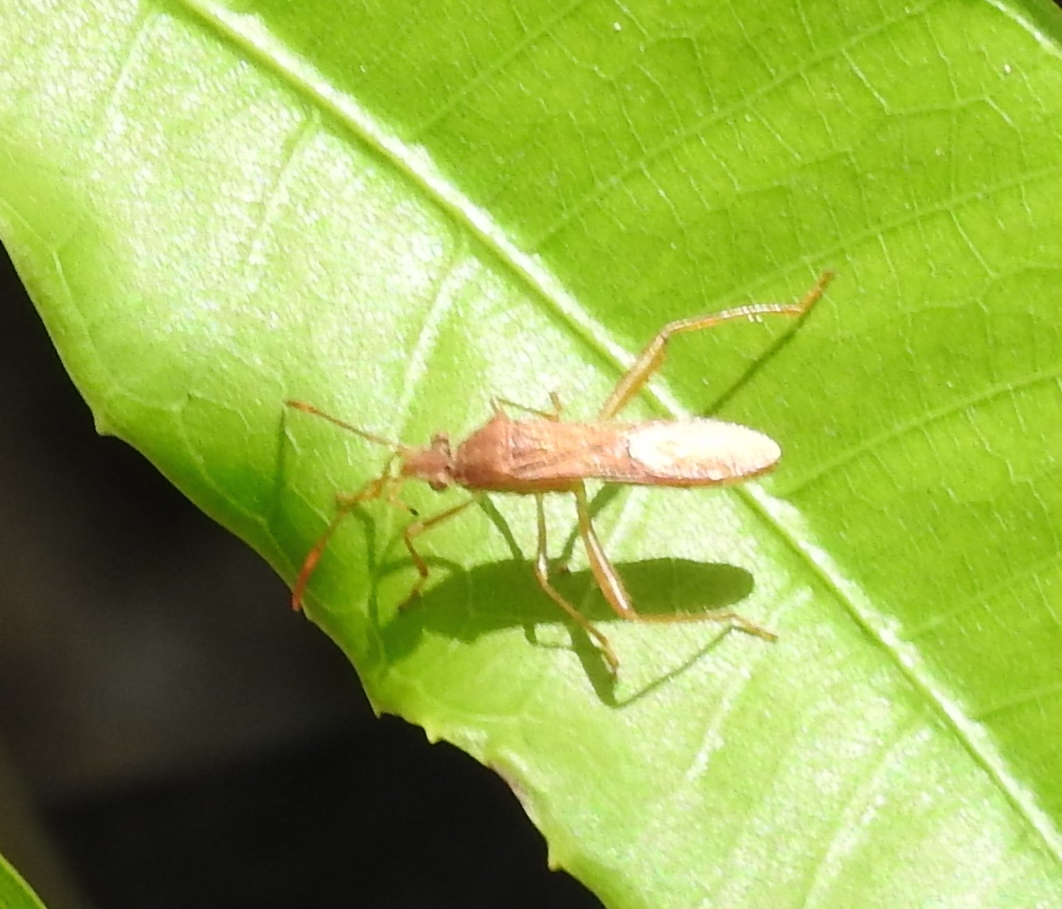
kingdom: Animalia
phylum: Arthropoda
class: Insecta
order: Hemiptera
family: Alydidae
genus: Burtinus
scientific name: Burtinus notatipennis
